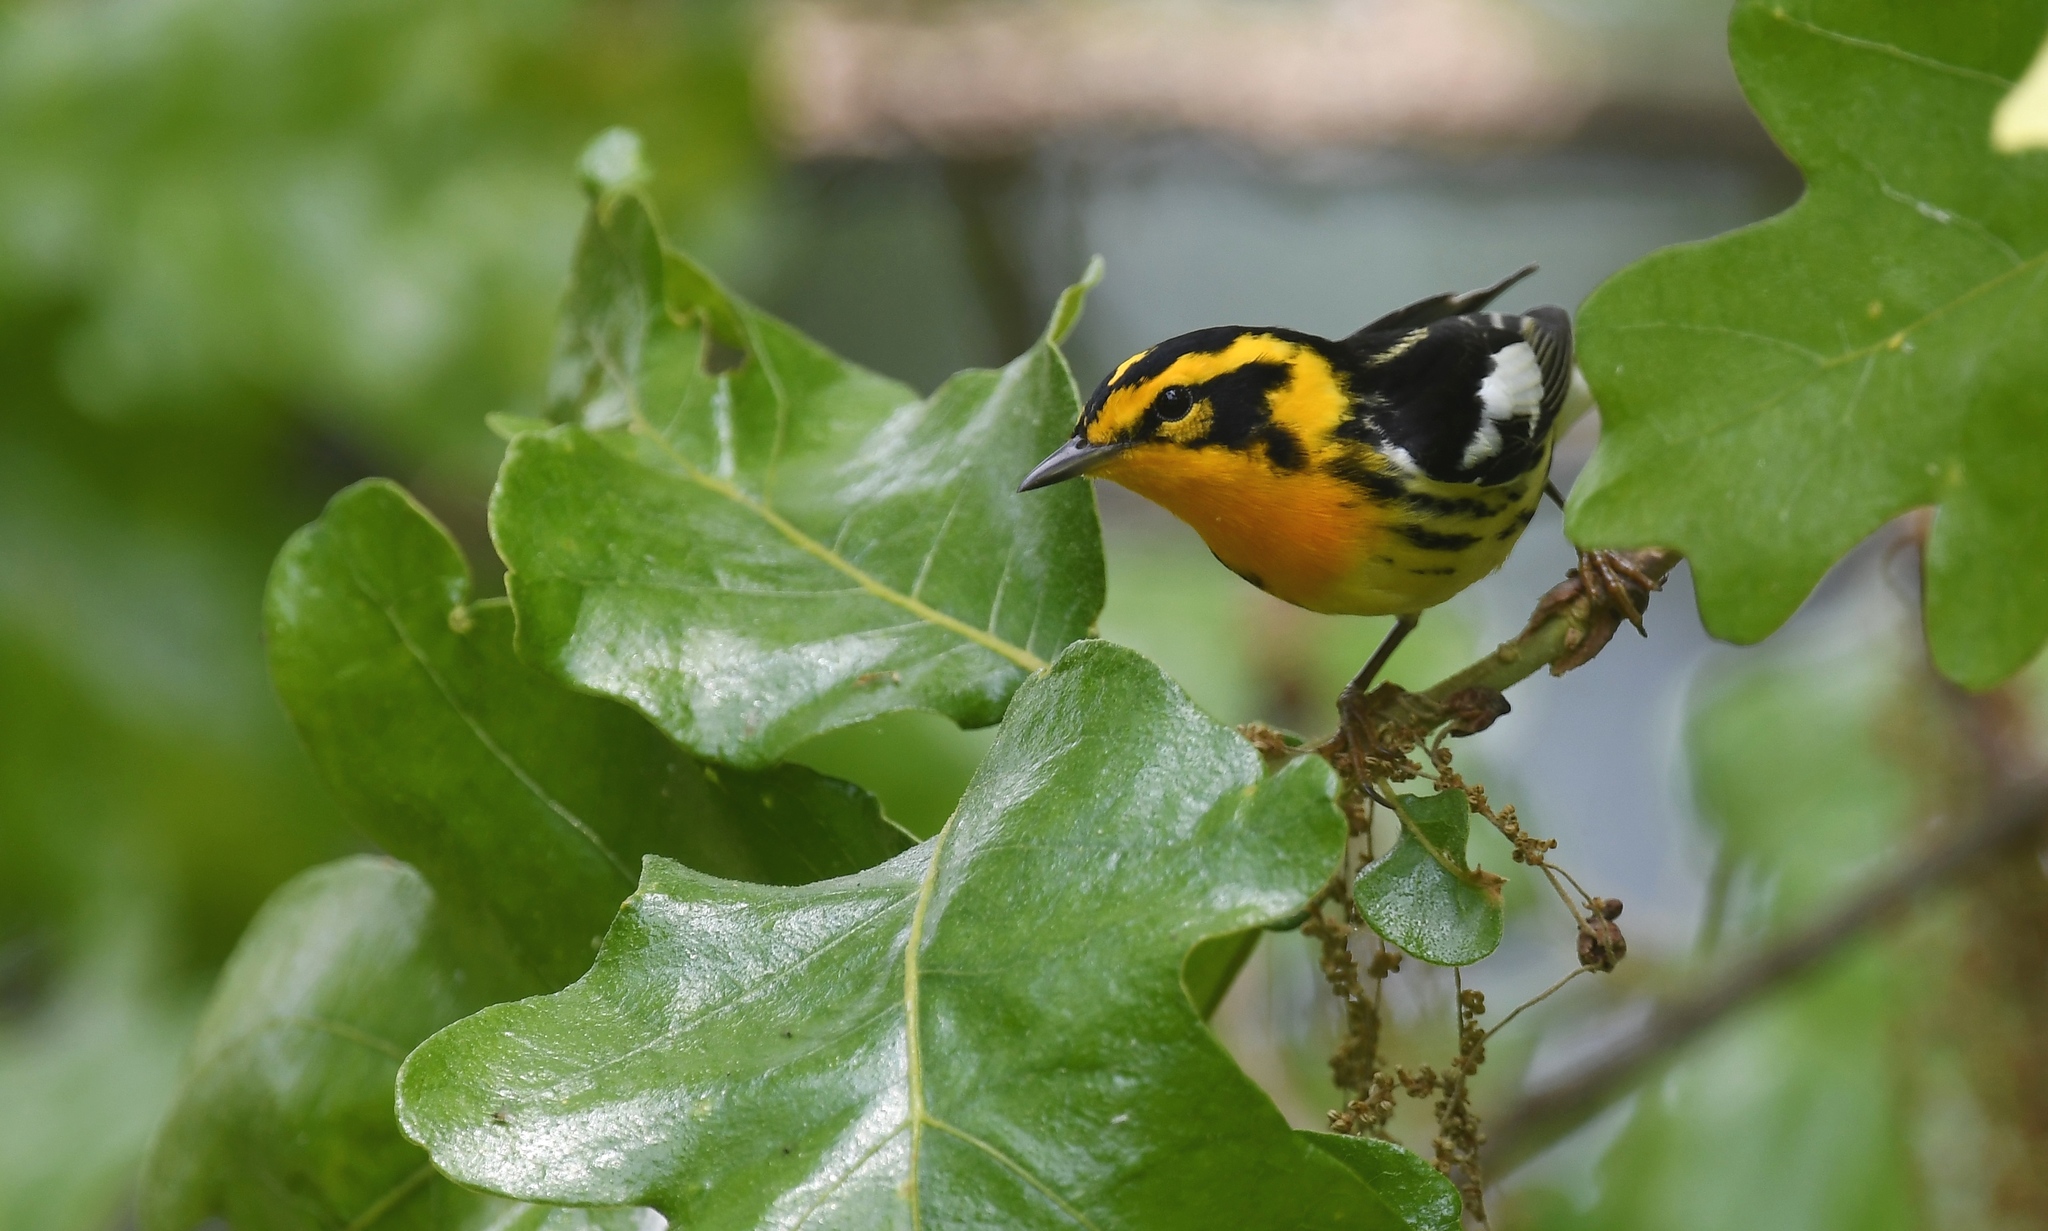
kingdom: Animalia
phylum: Chordata
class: Aves
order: Passeriformes
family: Parulidae
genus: Setophaga
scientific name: Setophaga fusca
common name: Blackburnian warbler
